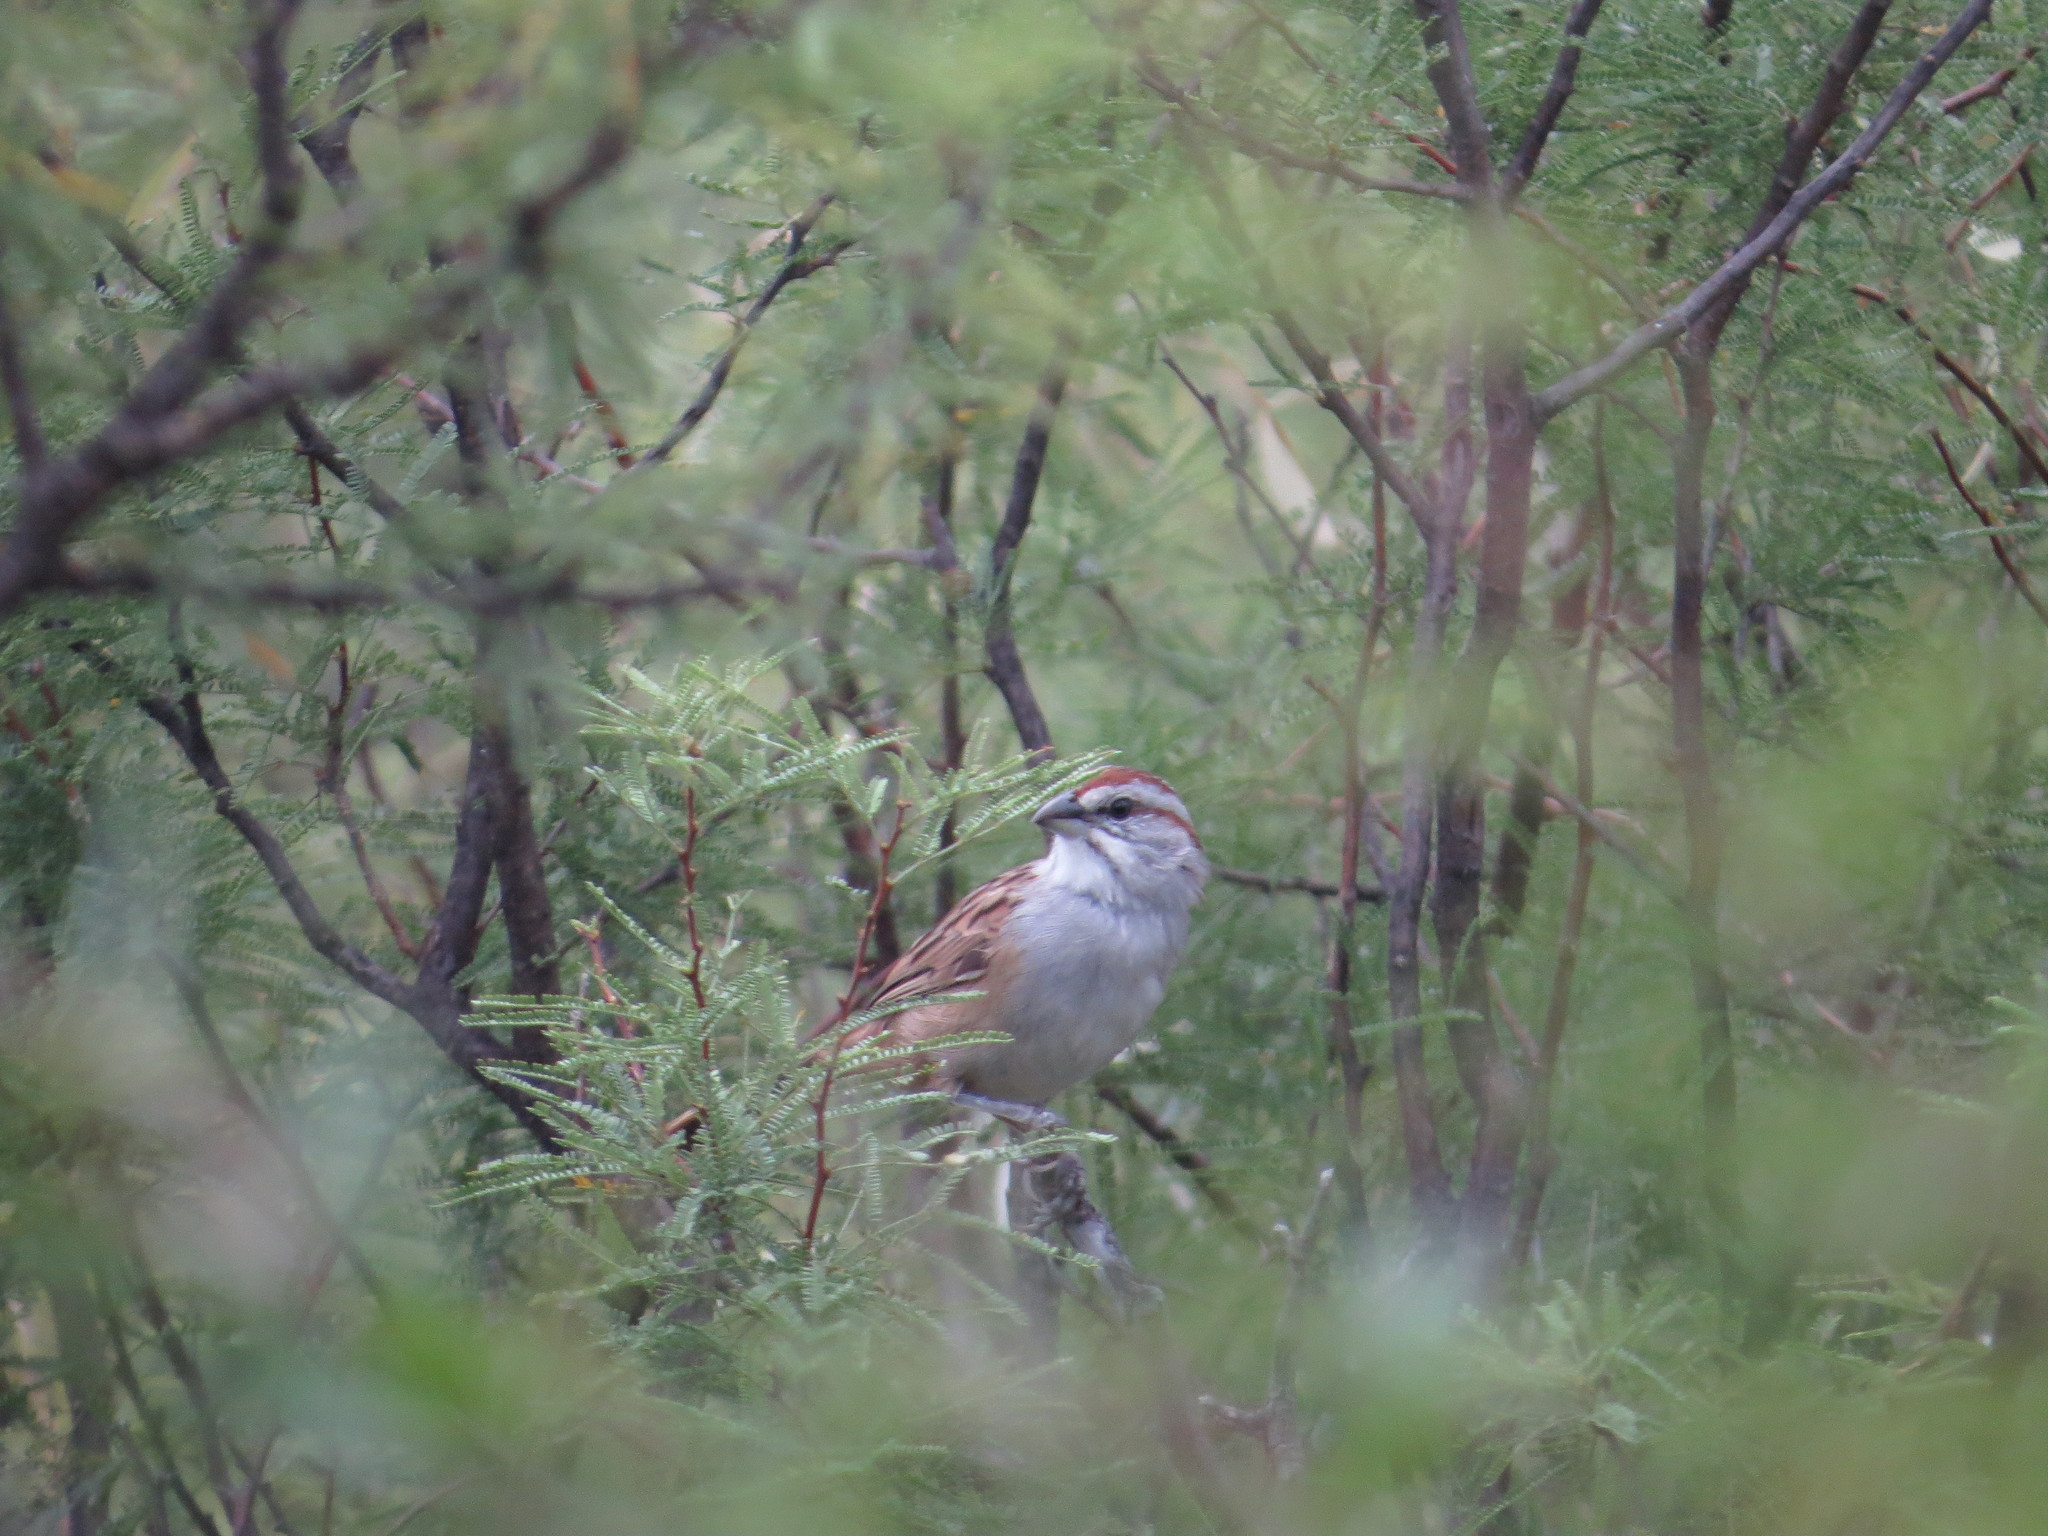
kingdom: Animalia
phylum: Chordata
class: Aves
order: Passeriformes
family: Passerellidae
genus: Rhynchospiza
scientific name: Rhynchospiza strigiceps
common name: Stripe-capped sparrow
